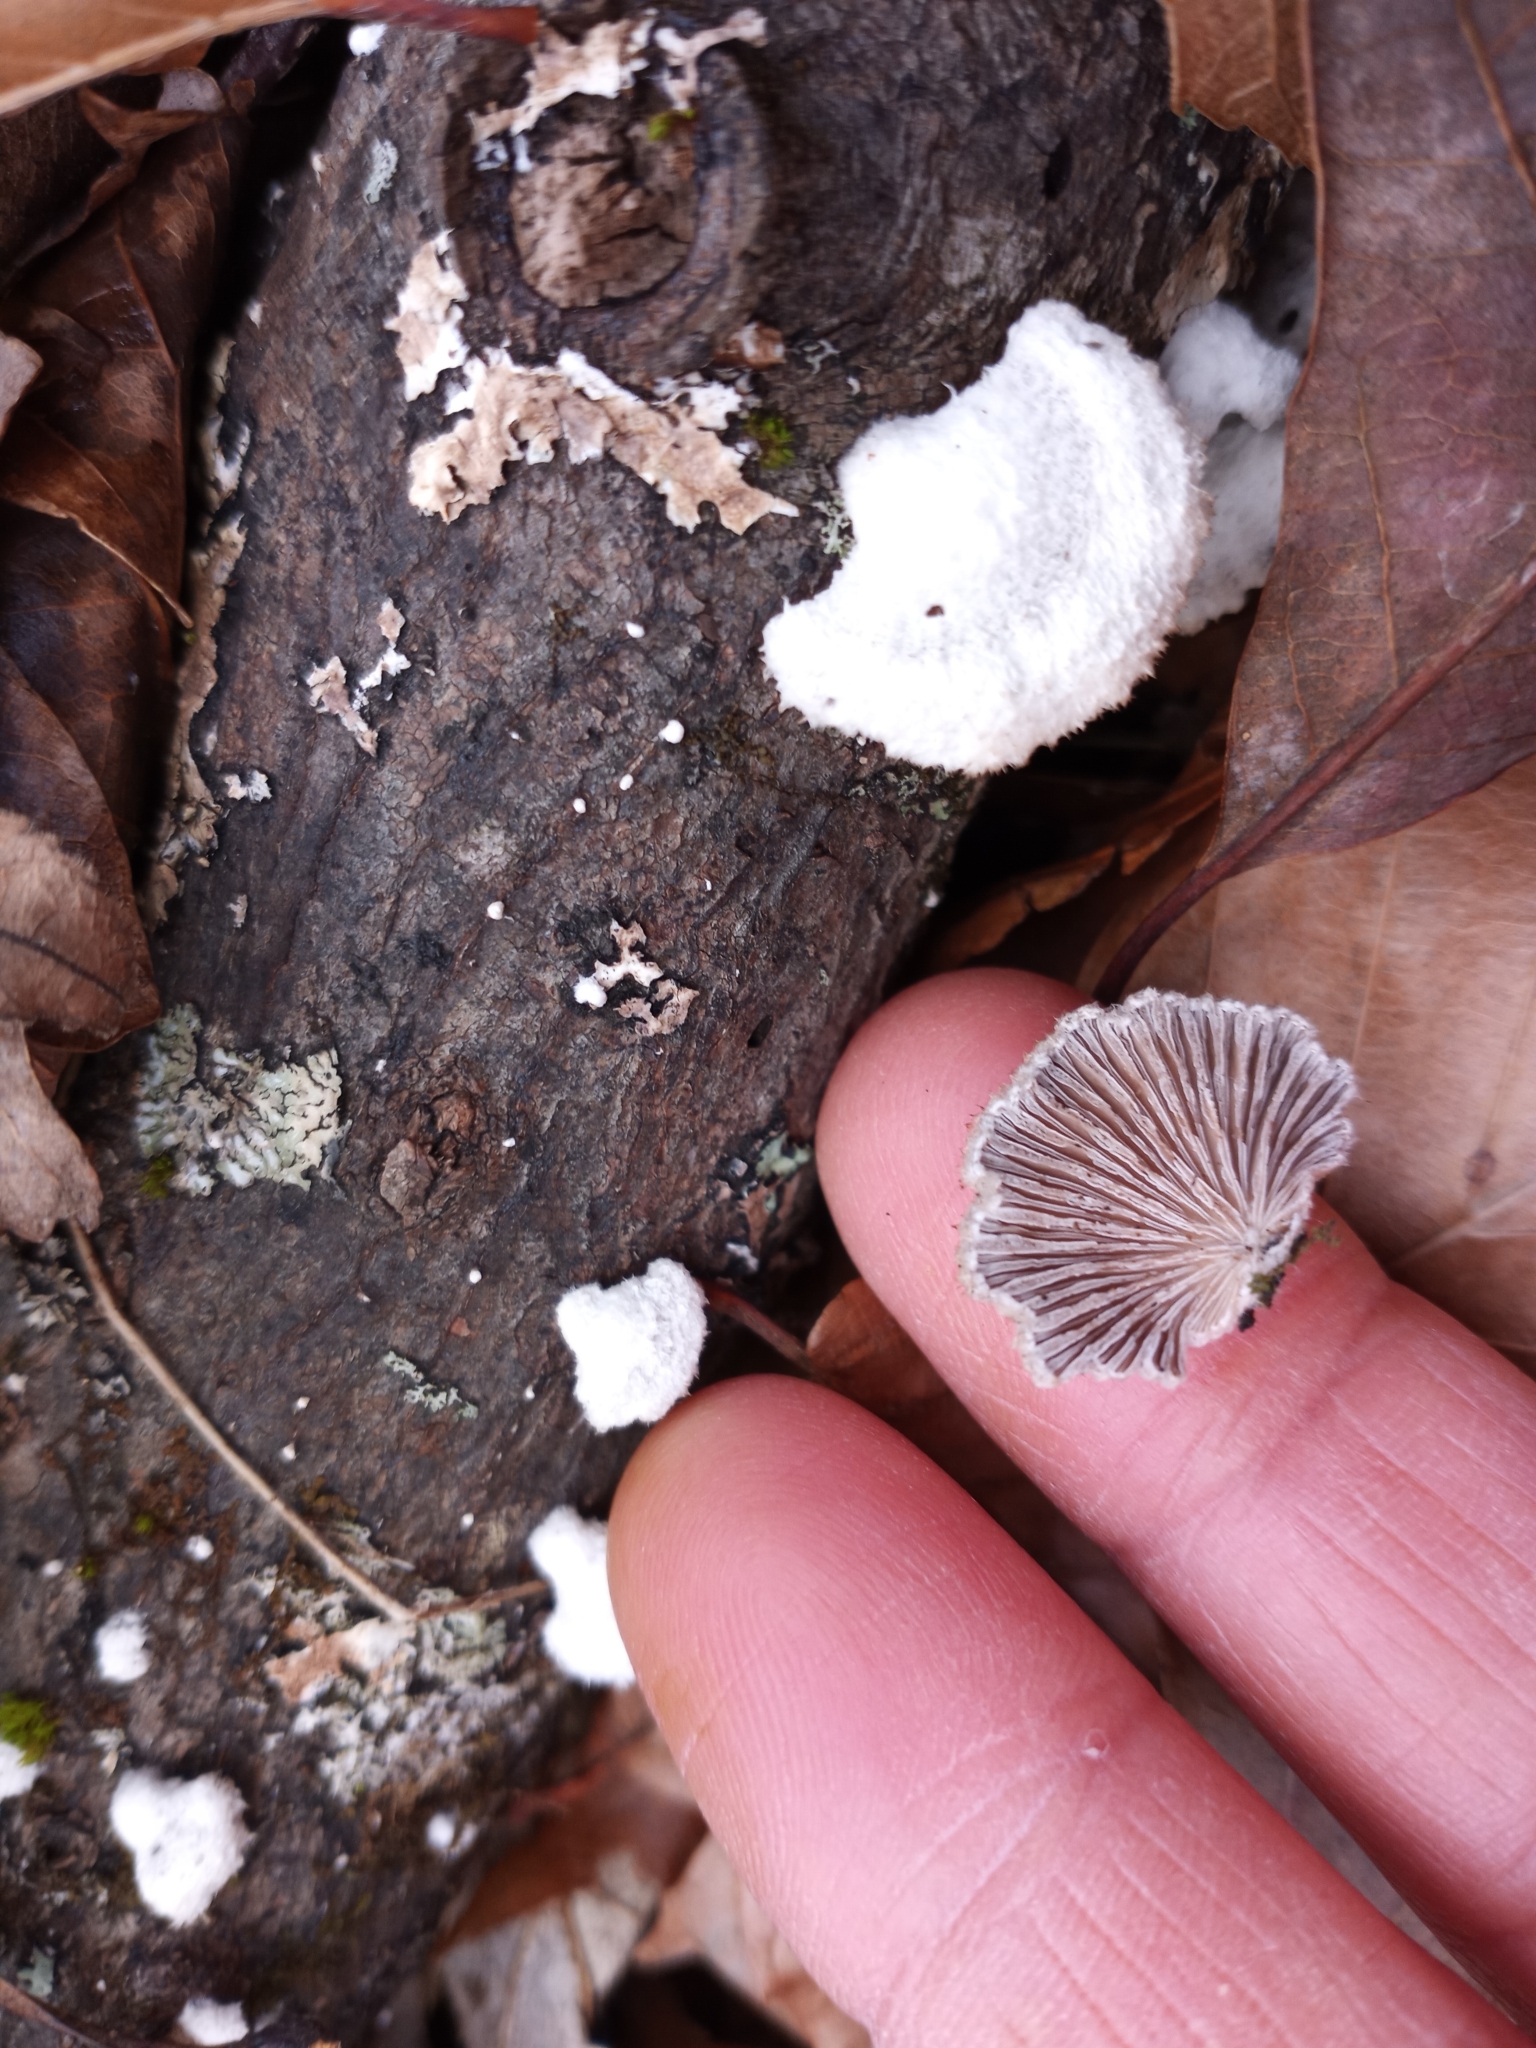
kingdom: Fungi
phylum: Basidiomycota
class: Agaricomycetes
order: Agaricales
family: Schizophyllaceae
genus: Schizophyllum
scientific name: Schizophyllum commune
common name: Common porecrust
